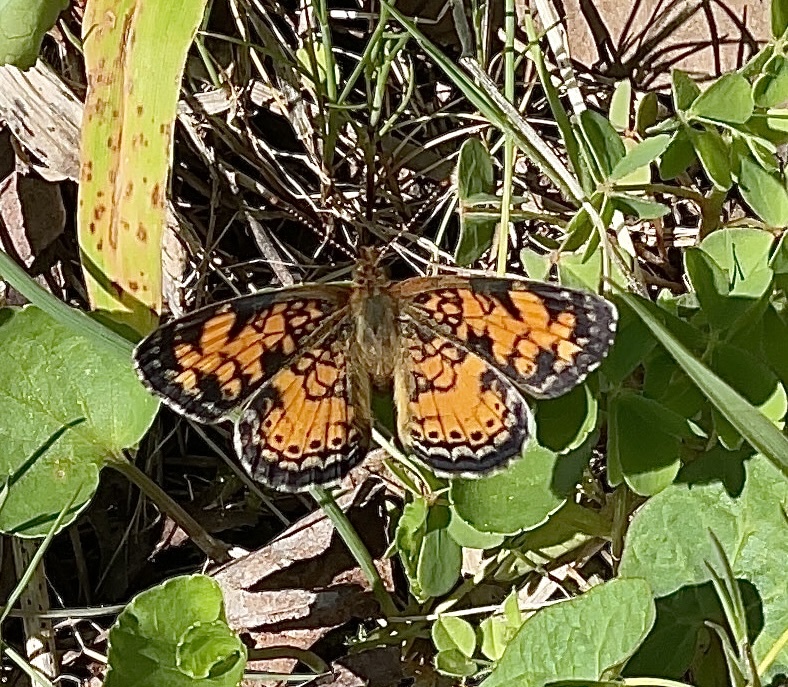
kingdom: Animalia
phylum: Arthropoda
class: Insecta
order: Lepidoptera
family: Nymphalidae
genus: Phyciodes
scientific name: Phyciodes tharos
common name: Pearl crescent
